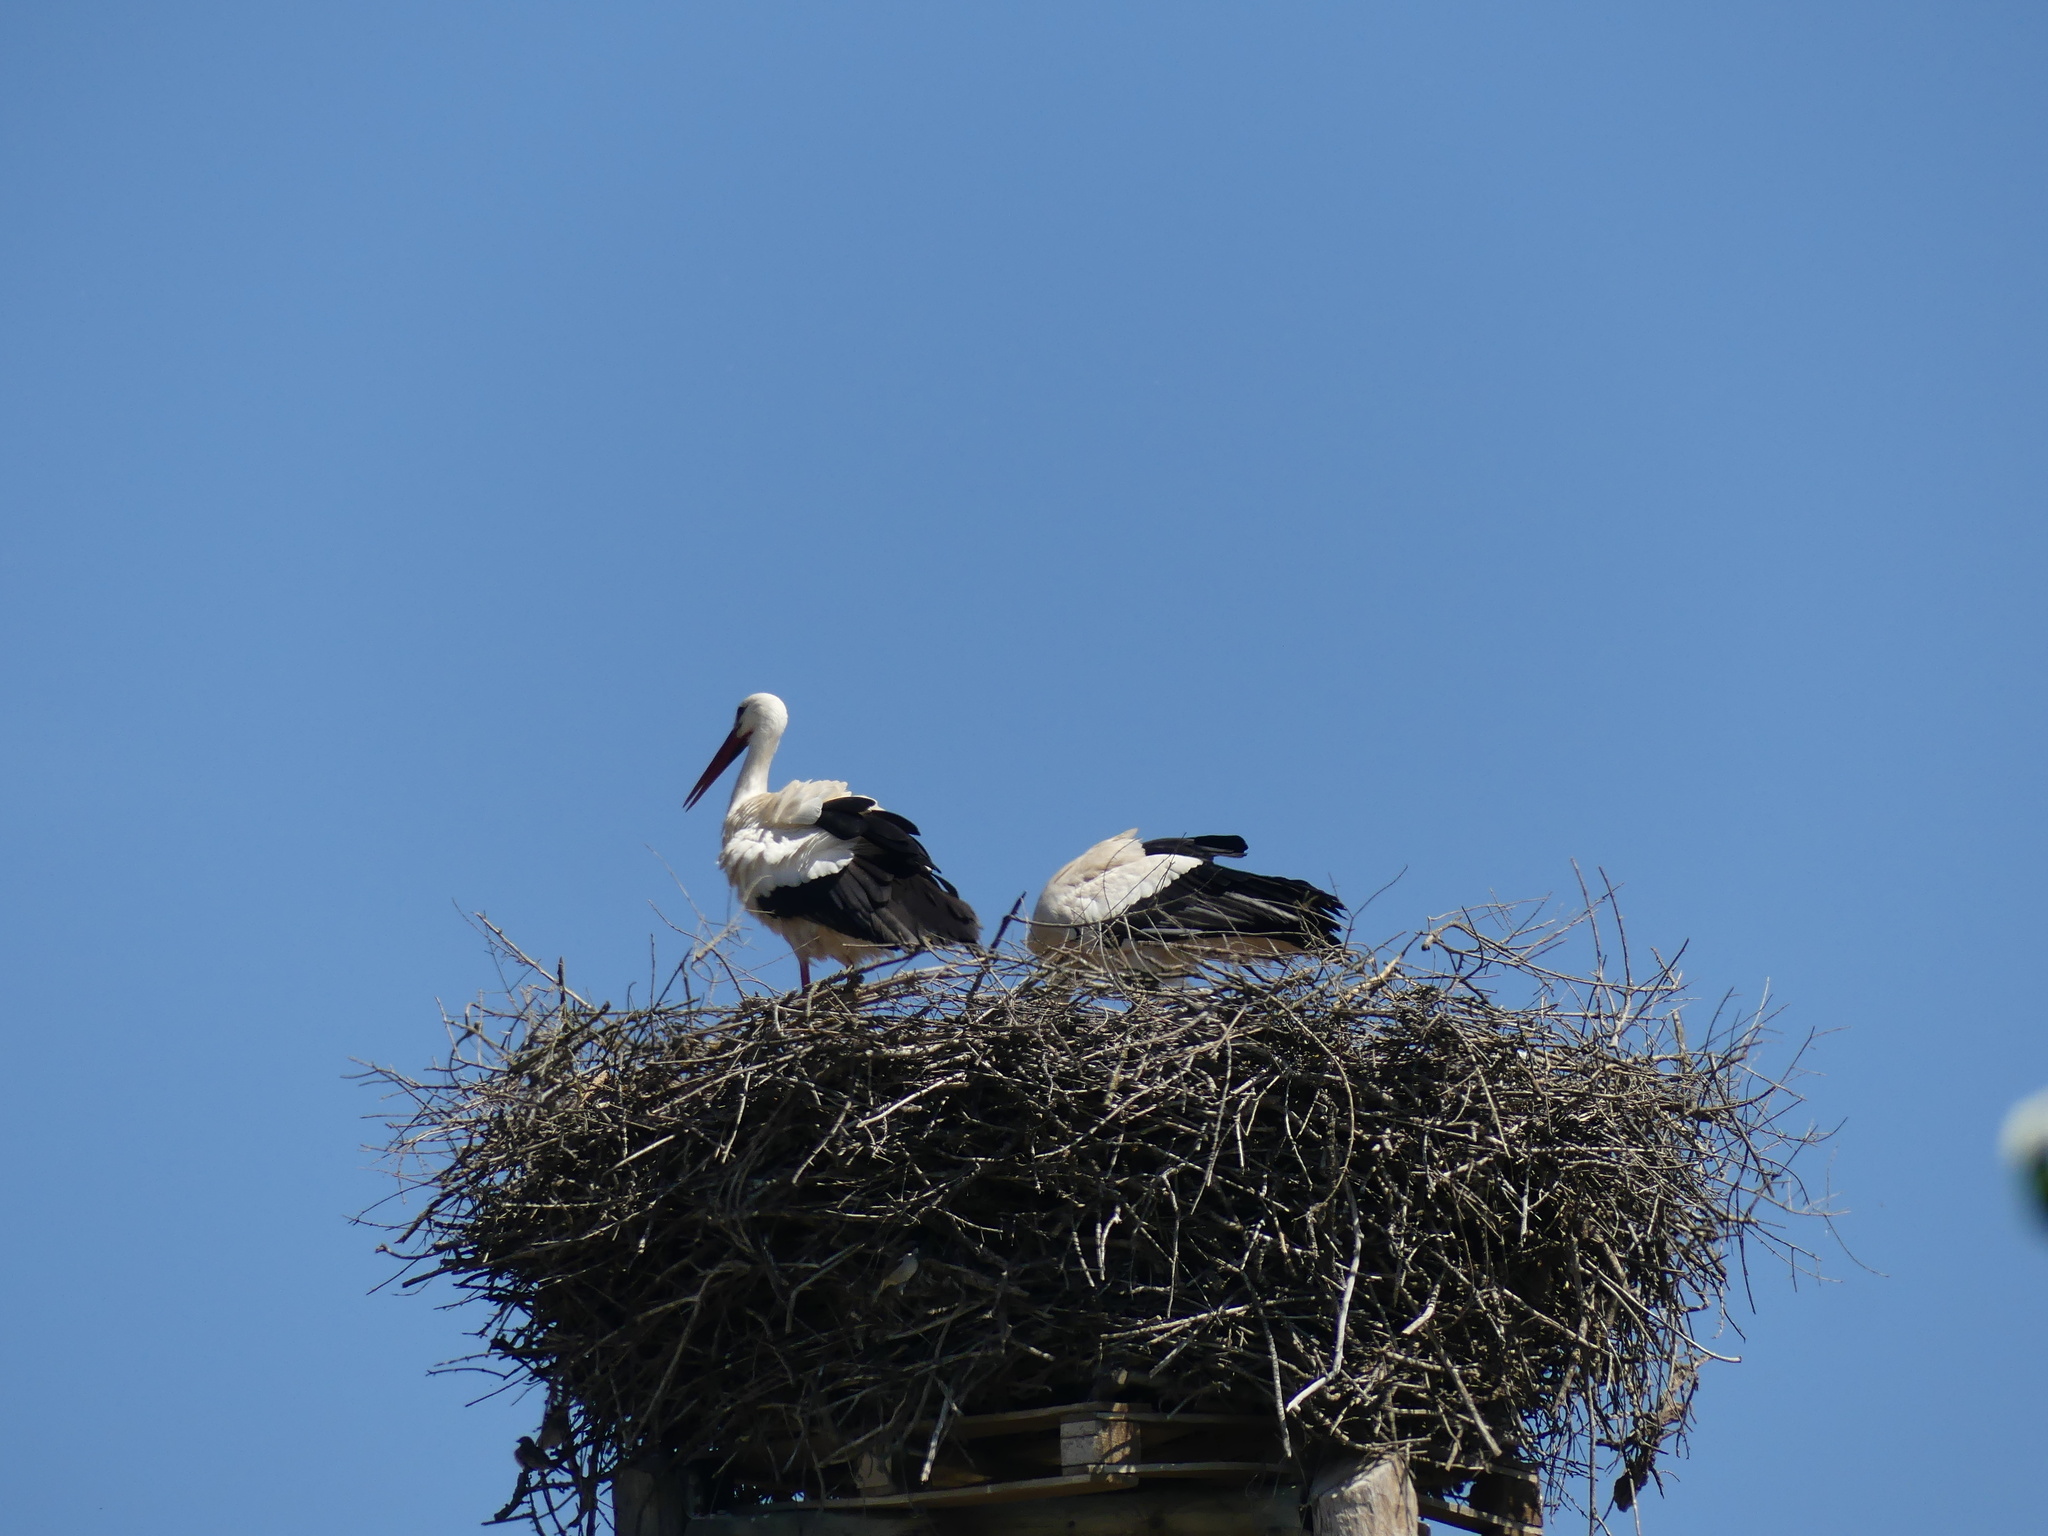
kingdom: Animalia
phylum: Chordata
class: Aves
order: Ciconiiformes
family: Ciconiidae
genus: Ciconia
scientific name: Ciconia ciconia
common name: White stork
